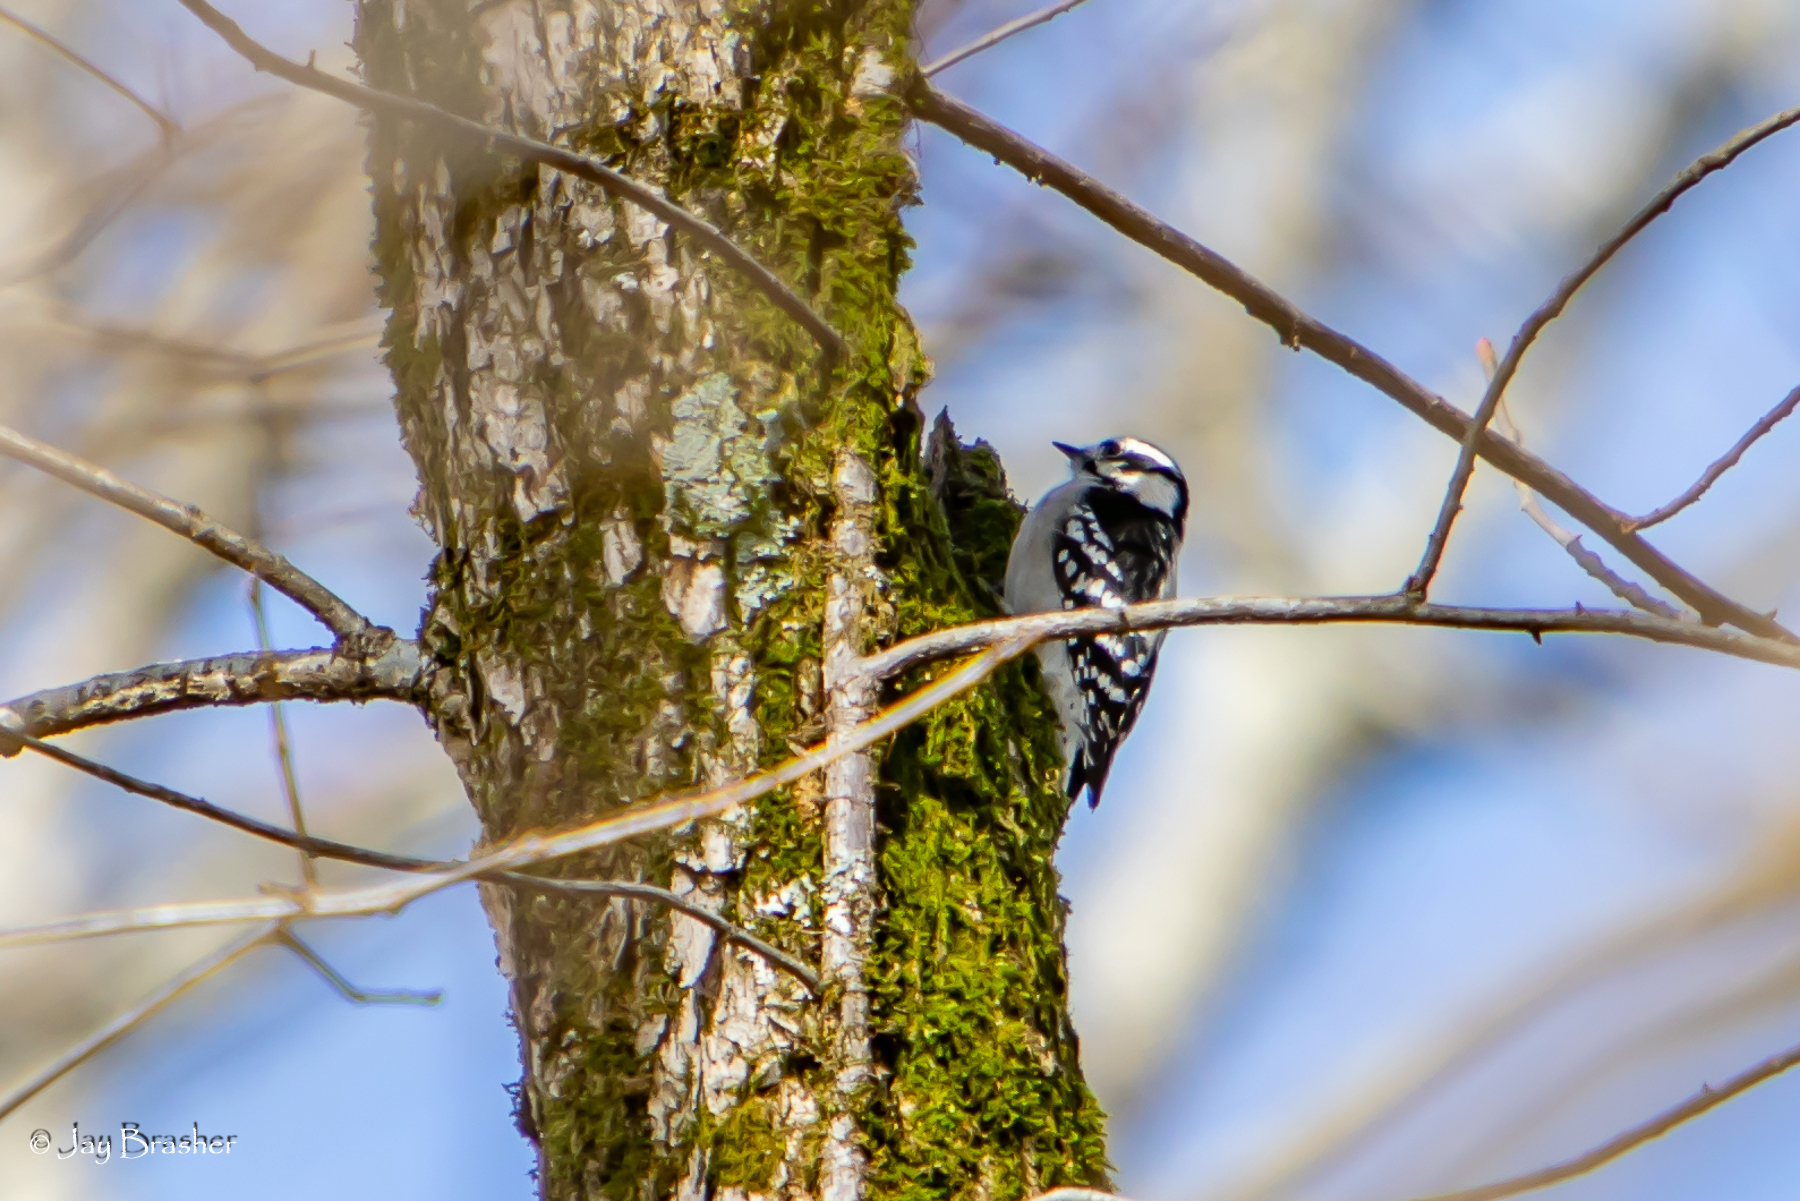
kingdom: Animalia
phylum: Chordata
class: Aves
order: Piciformes
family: Picidae
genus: Dryobates
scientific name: Dryobates pubescens
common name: Downy woodpecker
